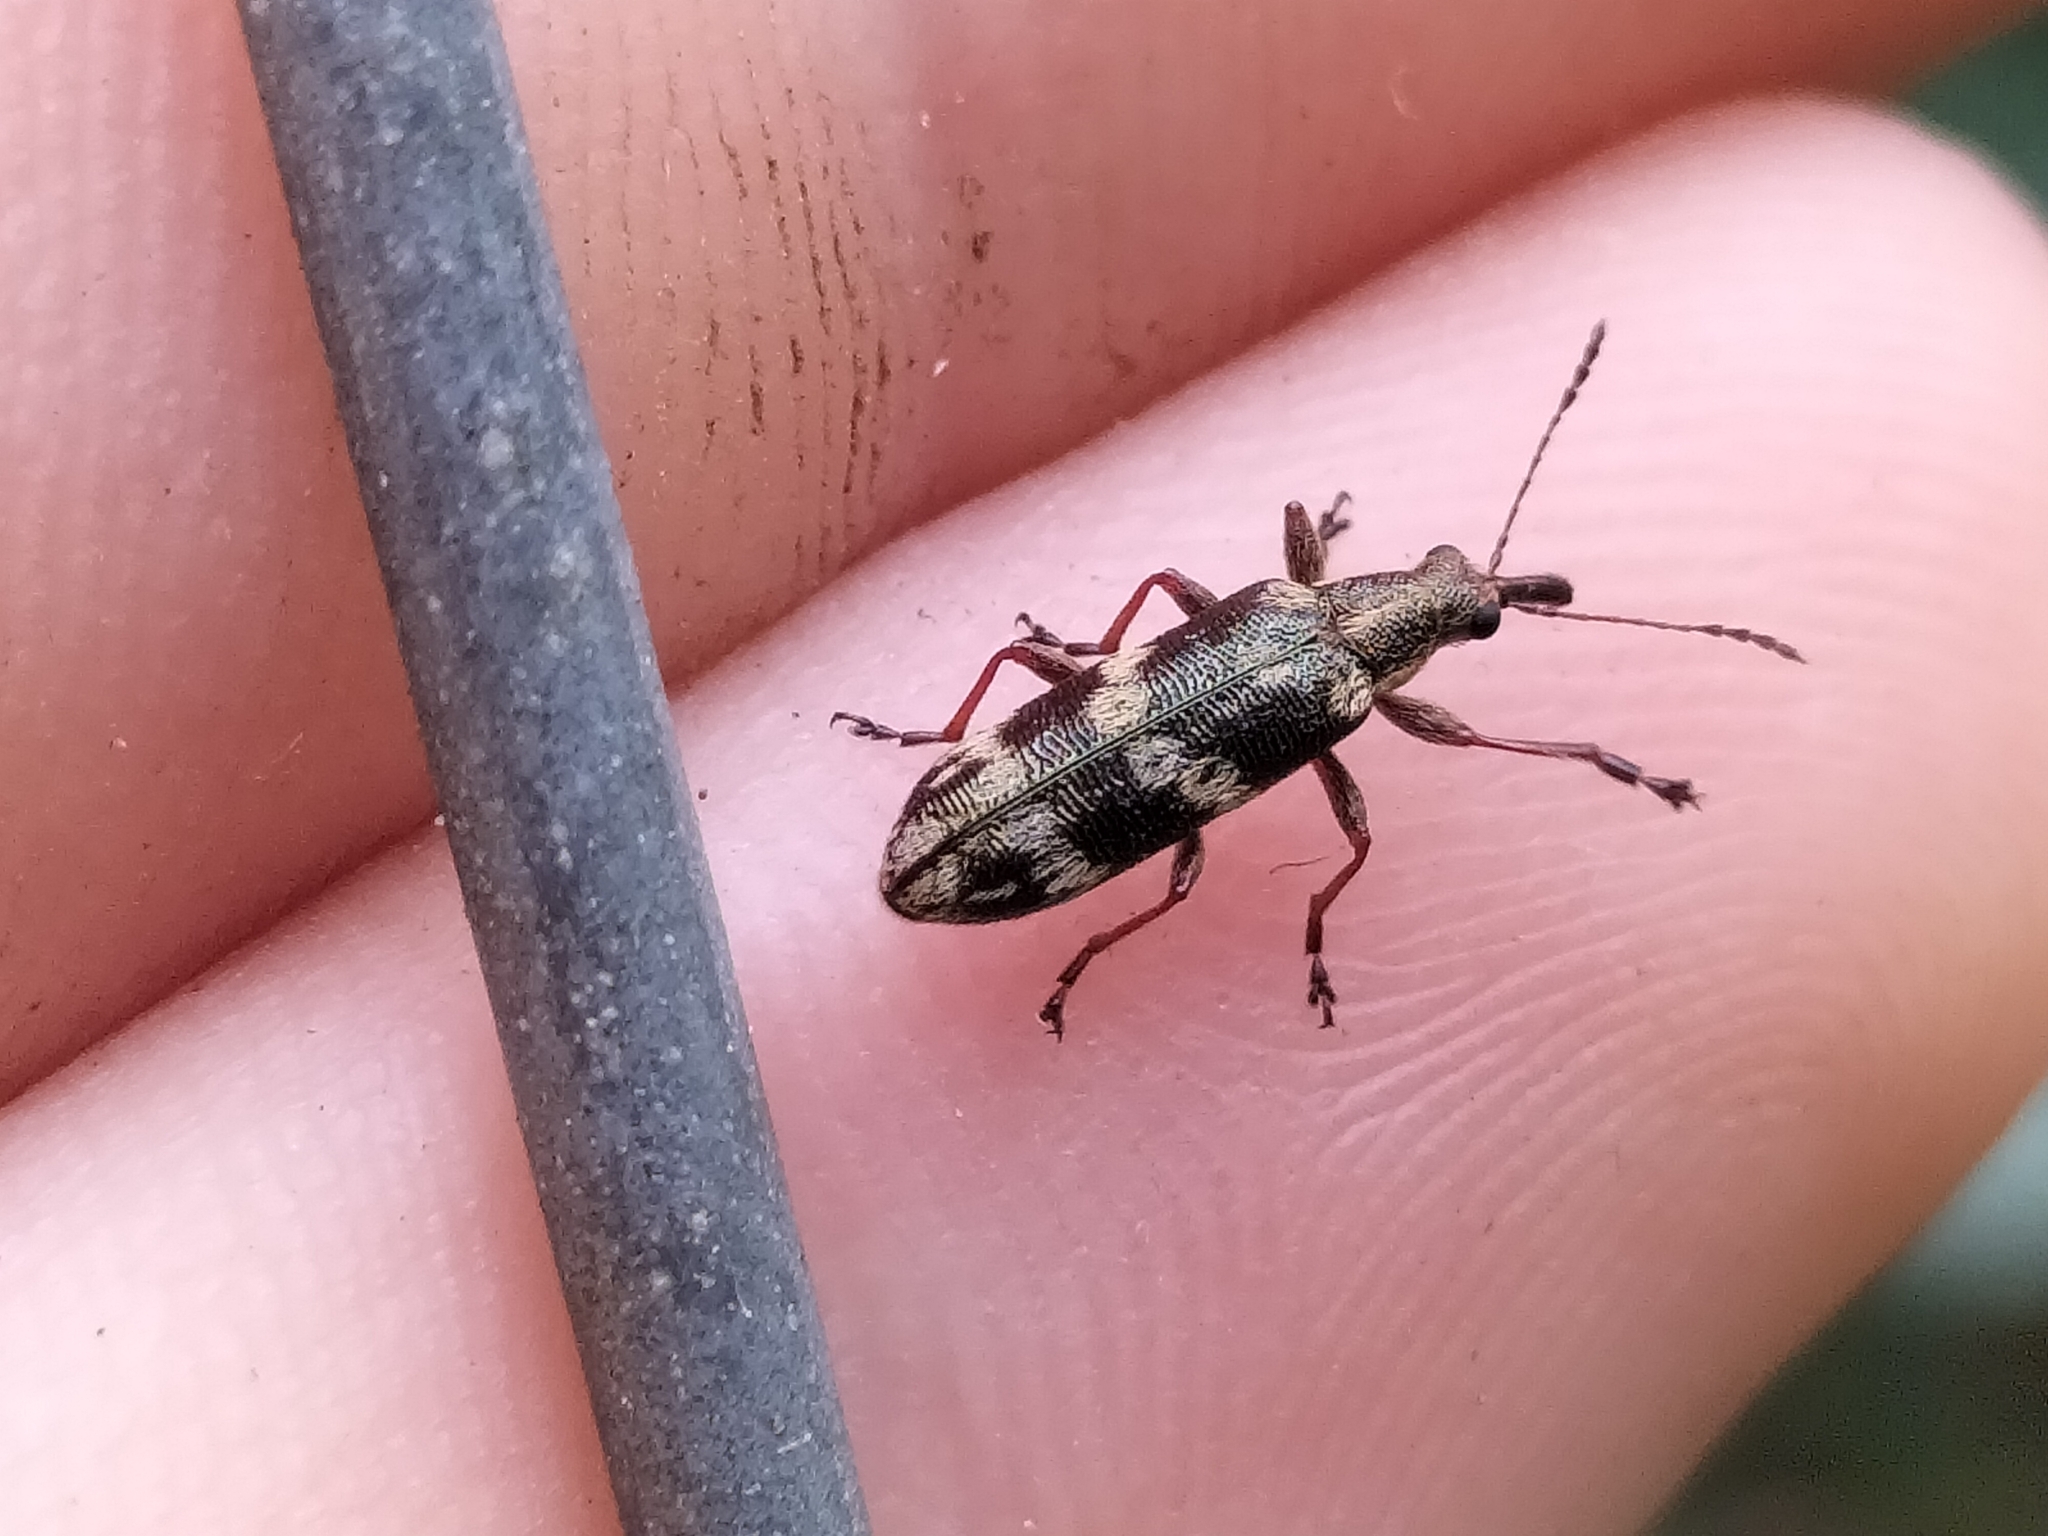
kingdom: Animalia
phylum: Arthropoda
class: Insecta
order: Coleoptera
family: Belidae
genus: Rhicnobelus
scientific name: Rhicnobelus
